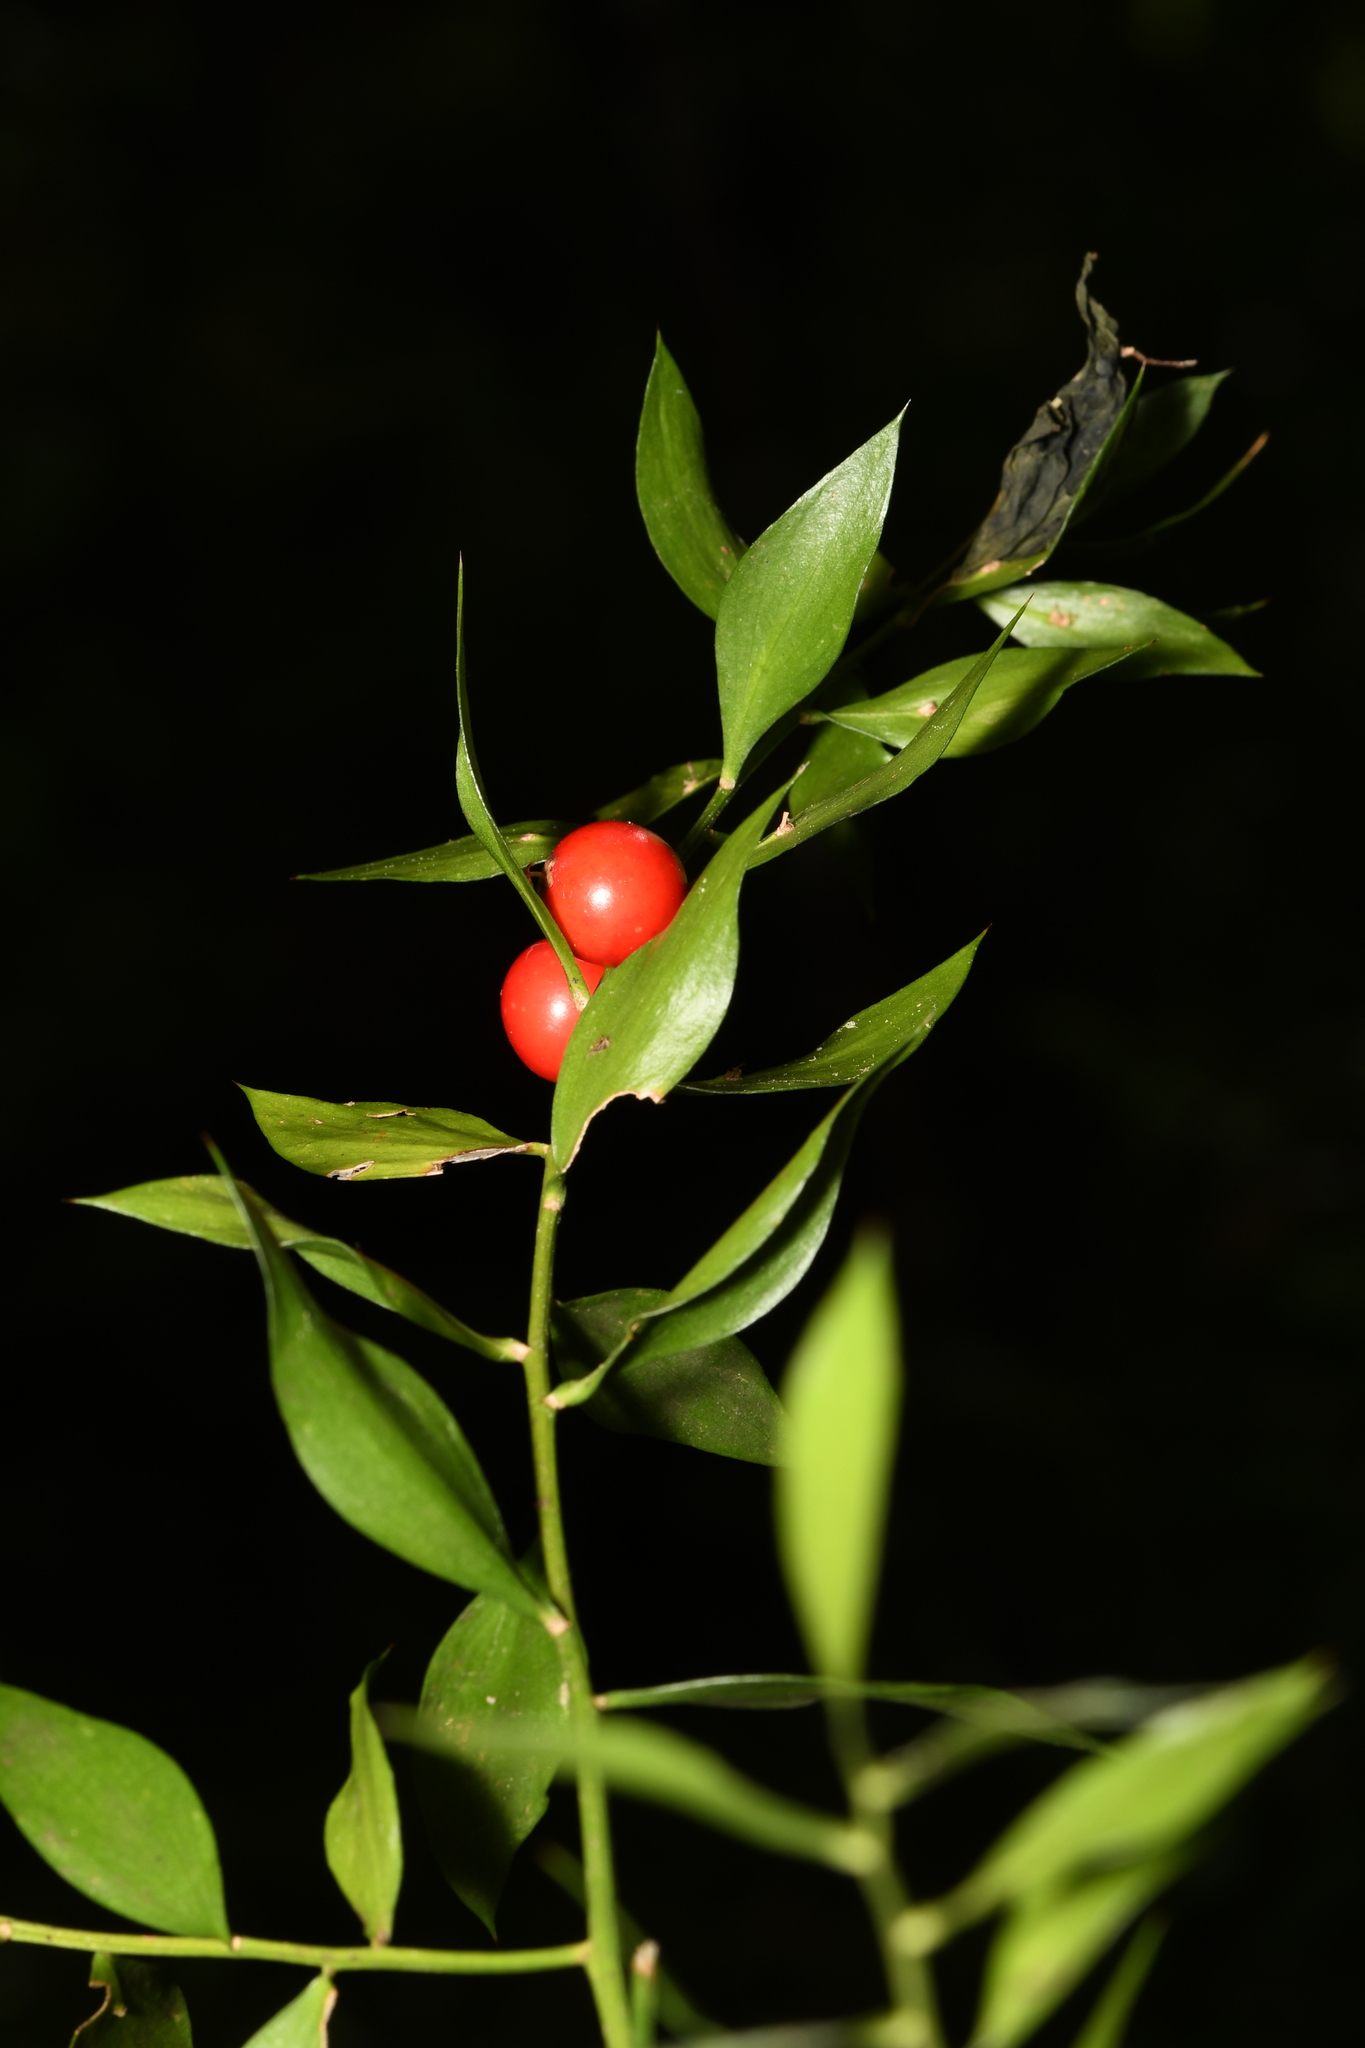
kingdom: Plantae
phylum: Tracheophyta
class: Liliopsida
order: Asparagales
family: Asparagaceae
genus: Ruscus
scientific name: Ruscus aculeatus
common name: Butcher's-broom
